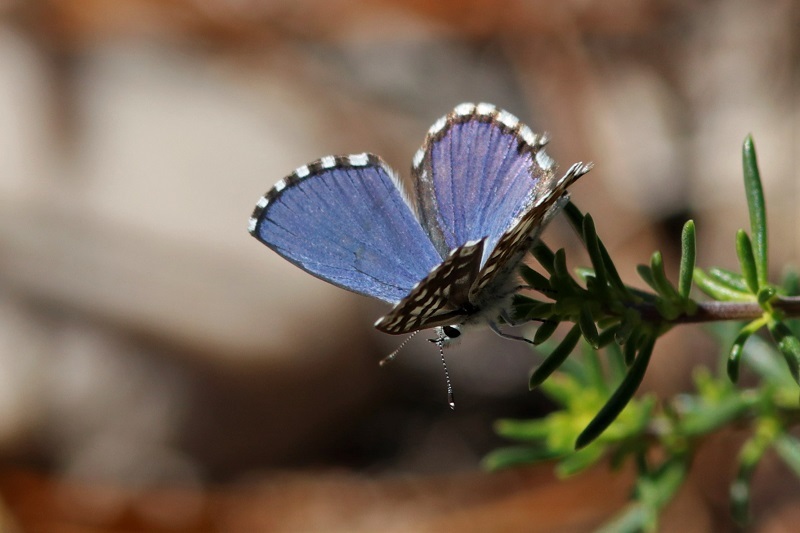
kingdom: Animalia
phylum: Arthropoda
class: Insecta
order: Lepidoptera
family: Lycaenidae
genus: Tarucus
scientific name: Tarucus thespis
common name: Vivid dotted blue
